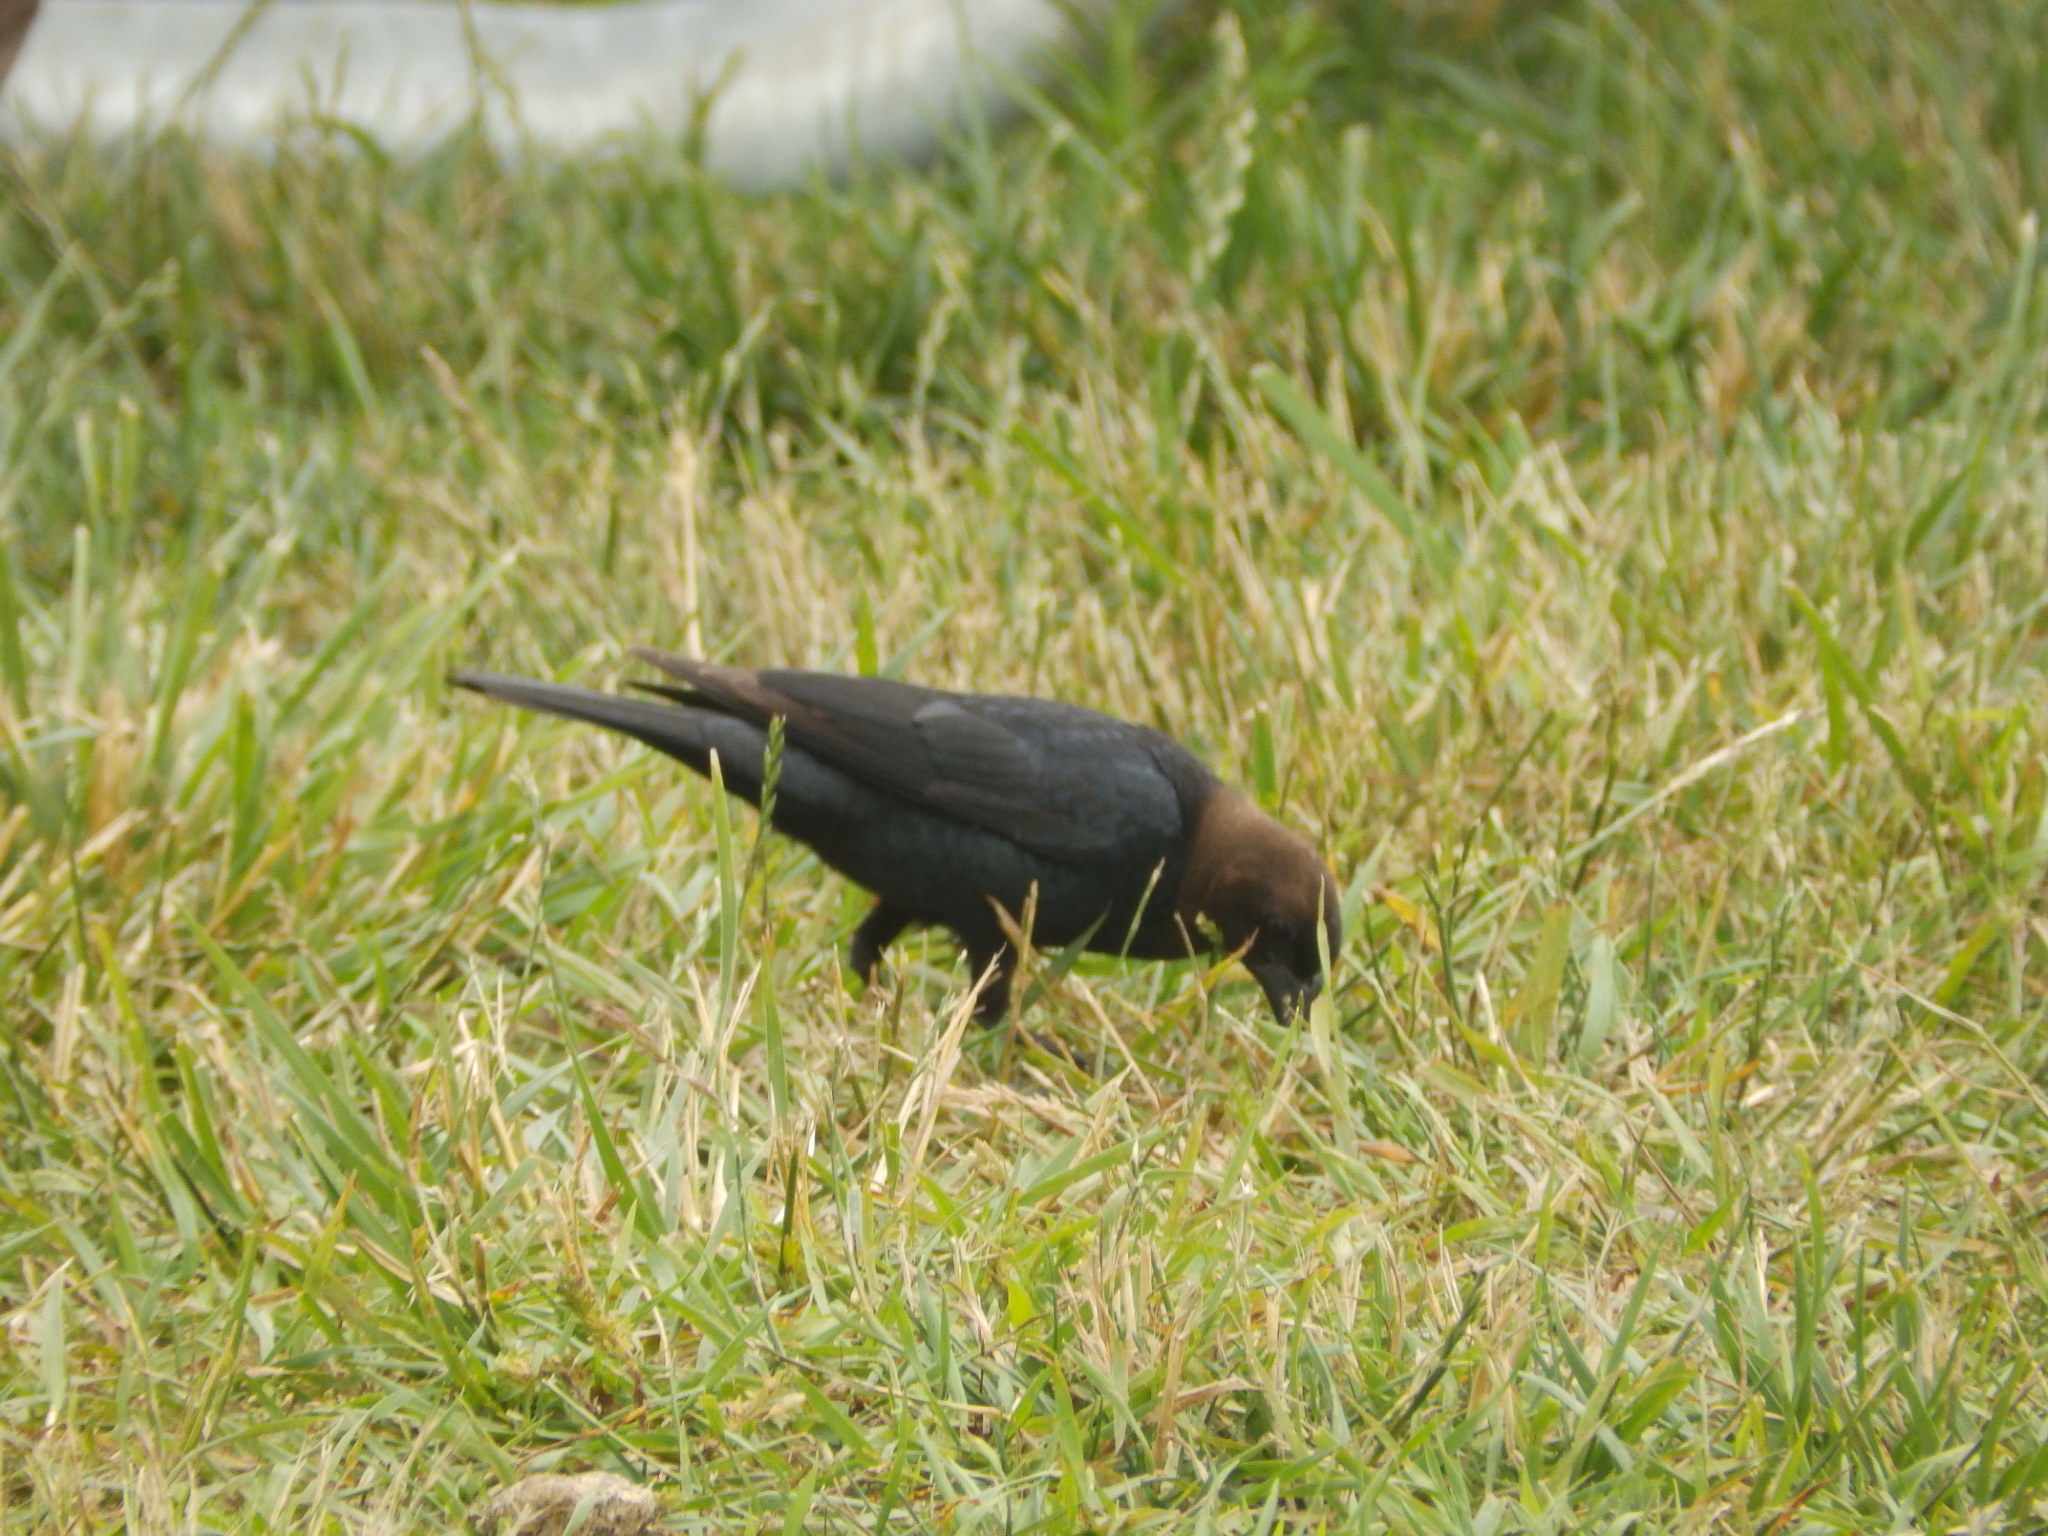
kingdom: Animalia
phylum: Chordata
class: Aves
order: Passeriformes
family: Icteridae
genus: Molothrus
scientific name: Molothrus ater
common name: Brown-headed cowbird
